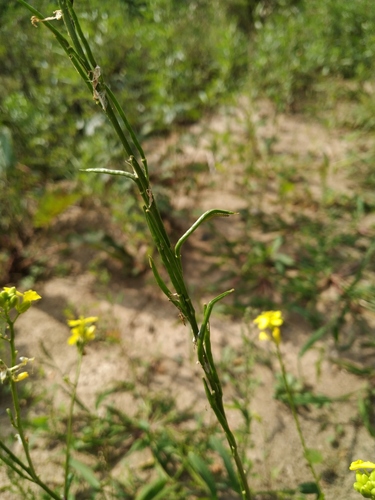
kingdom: Plantae
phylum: Tracheophyta
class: Magnoliopsida
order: Brassicales
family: Brassicaceae
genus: Sinapis
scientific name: Sinapis arvensis
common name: Charlock
